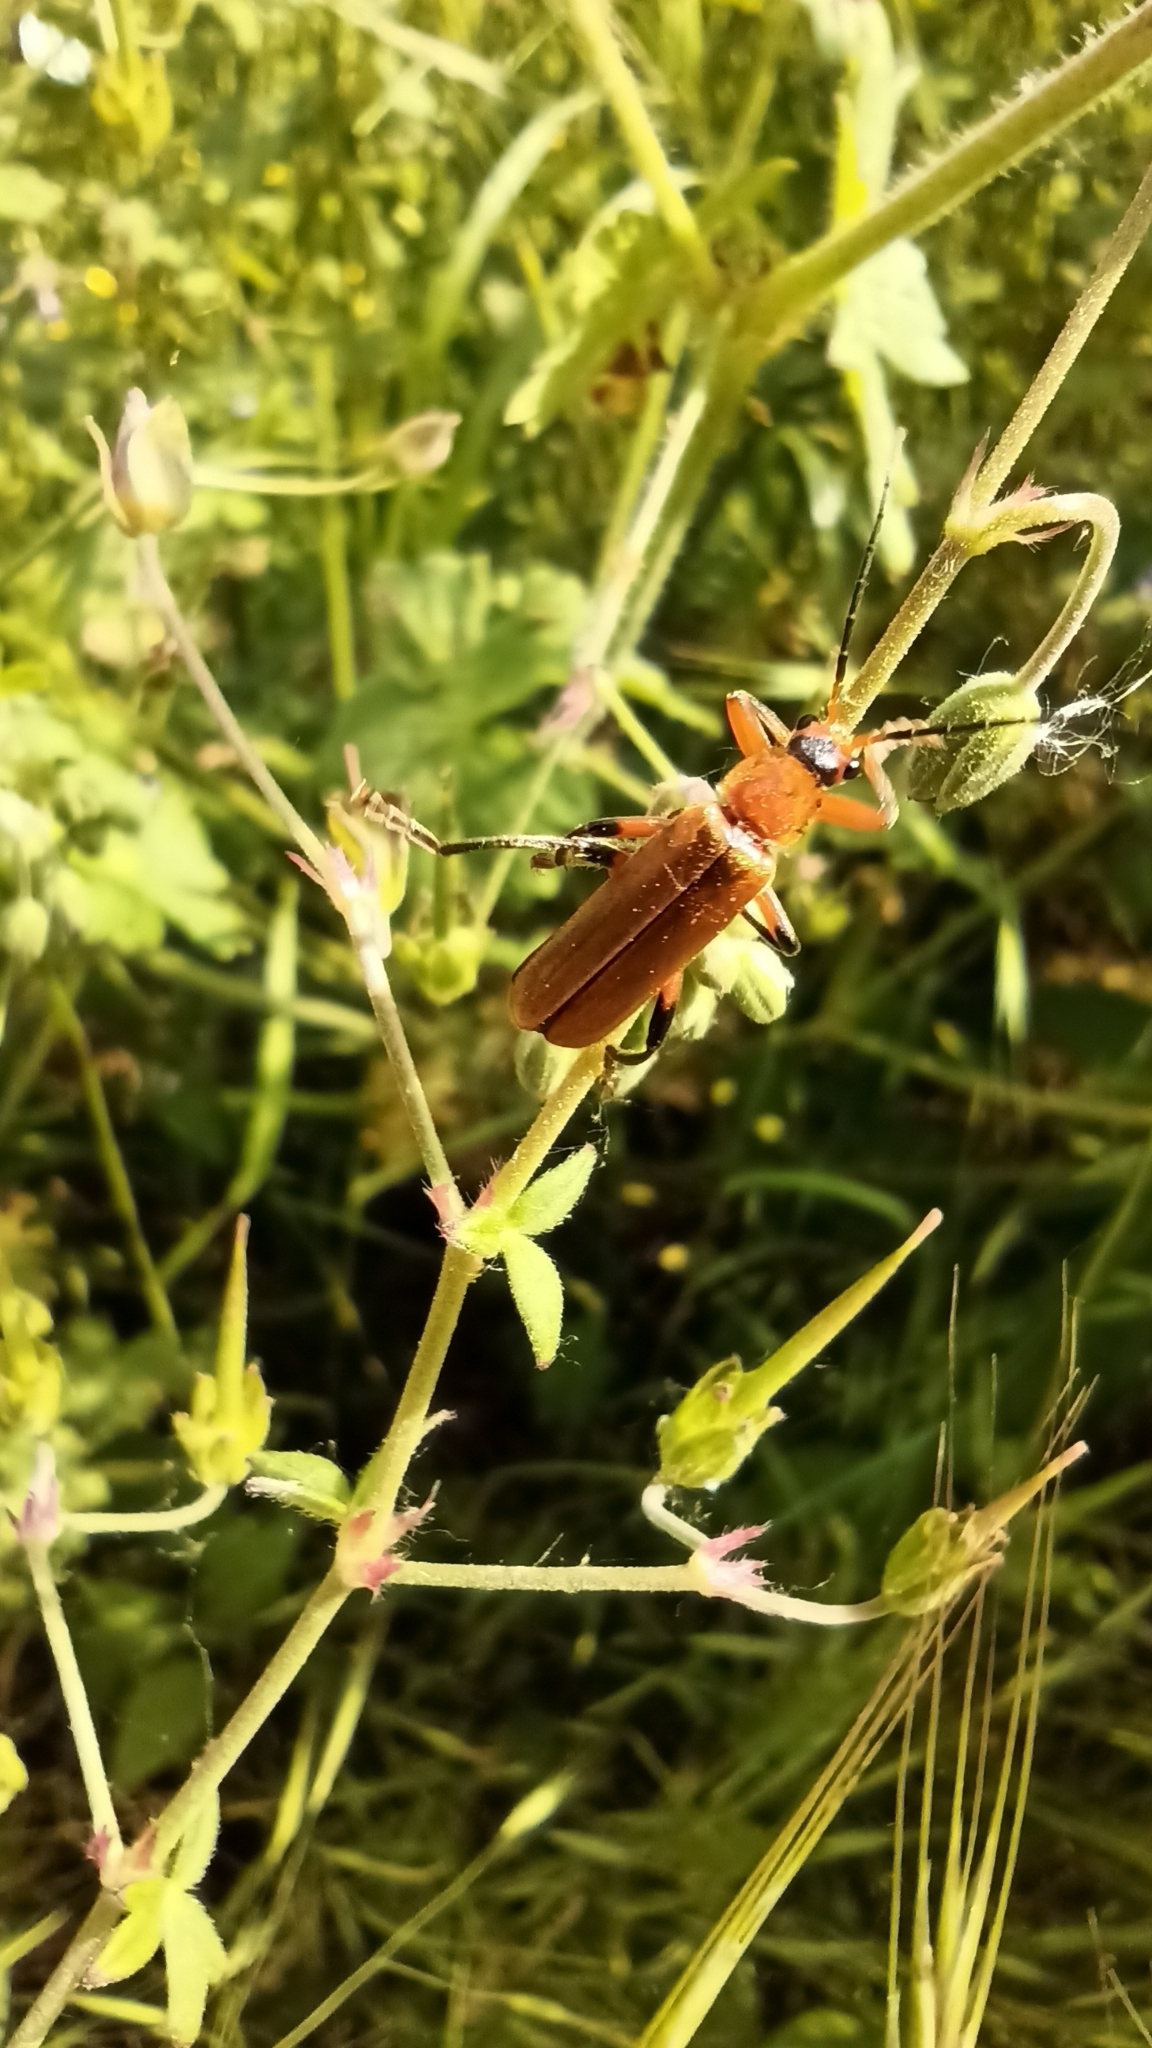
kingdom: Animalia
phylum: Arthropoda
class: Insecta
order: Coleoptera
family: Cantharidae
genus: Cantharis
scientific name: Cantharis livida
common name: Livid soldier beetle
